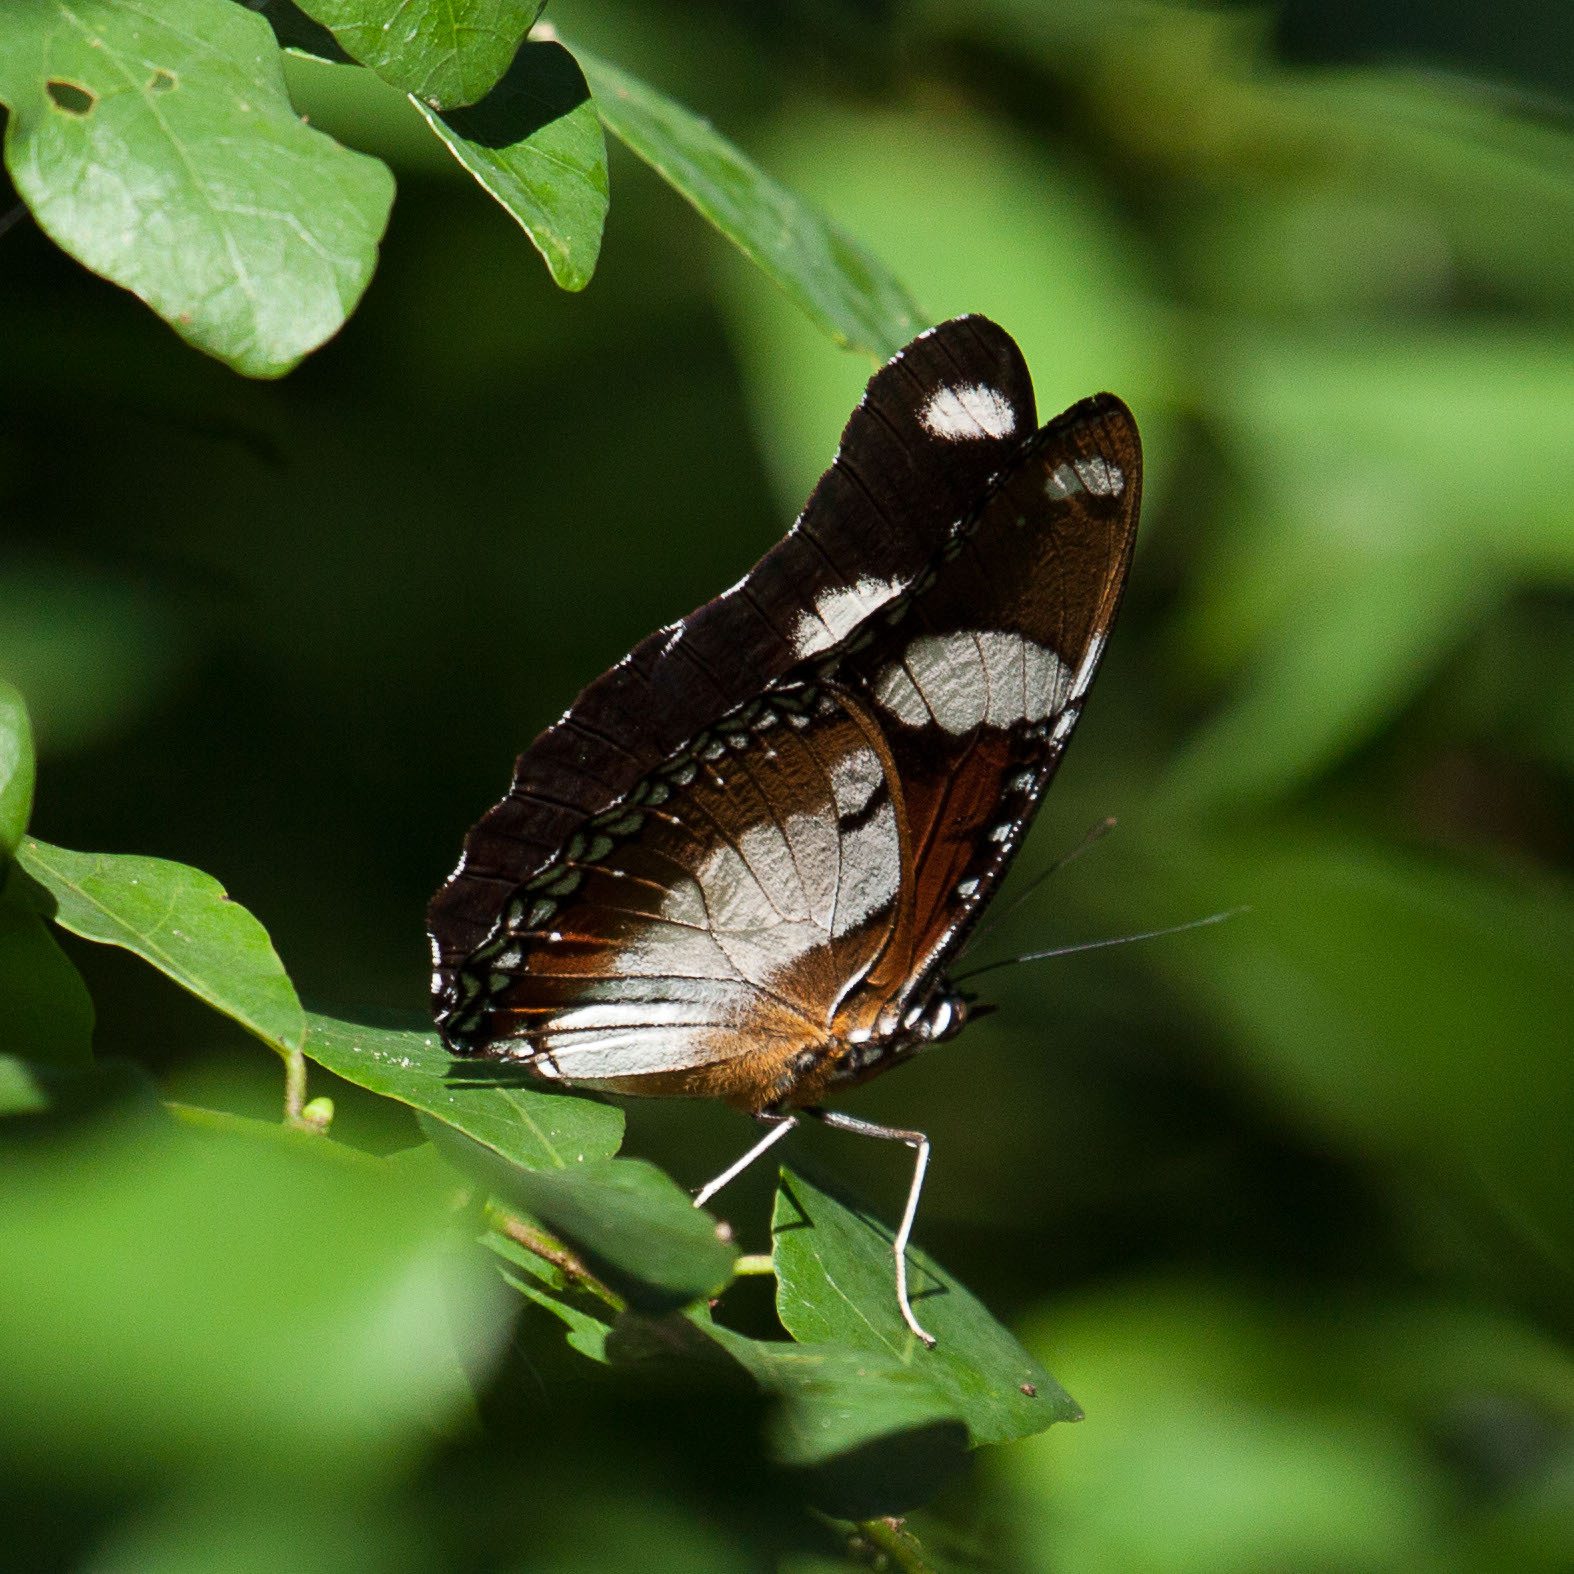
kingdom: Animalia
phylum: Arthropoda
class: Insecta
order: Lepidoptera
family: Nymphalidae
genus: Hypolimnas
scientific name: Hypolimnas misippus
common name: False plain tiger
